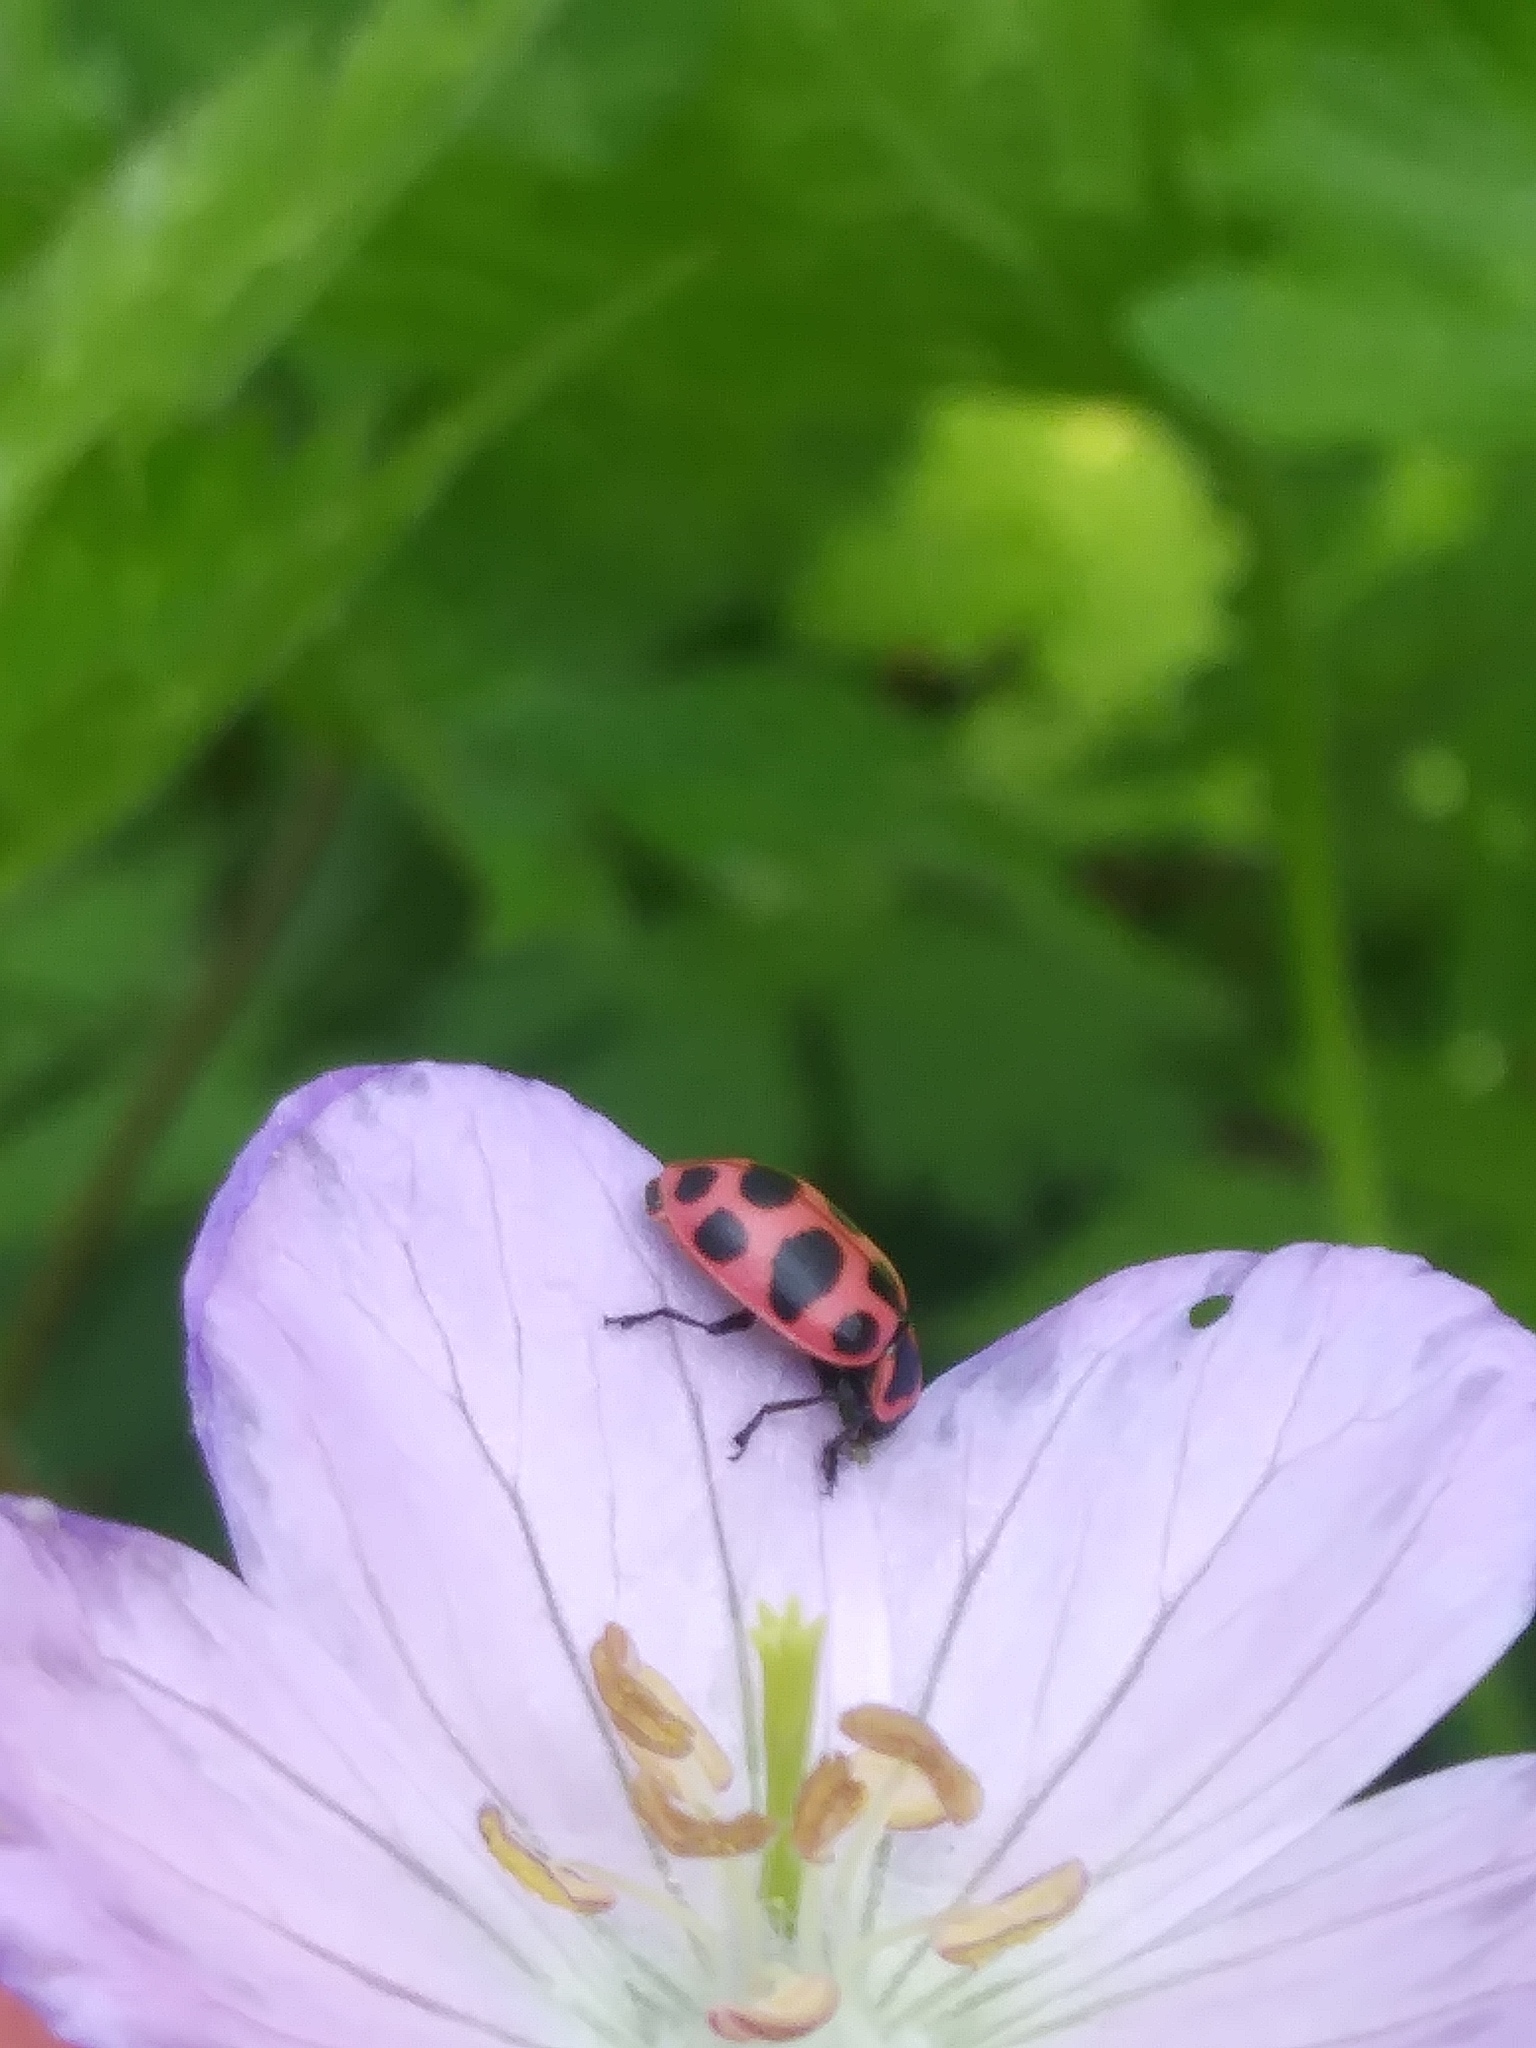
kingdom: Animalia
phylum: Arthropoda
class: Insecta
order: Coleoptera
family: Coccinellidae
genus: Coleomegilla
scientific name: Coleomegilla maculata
